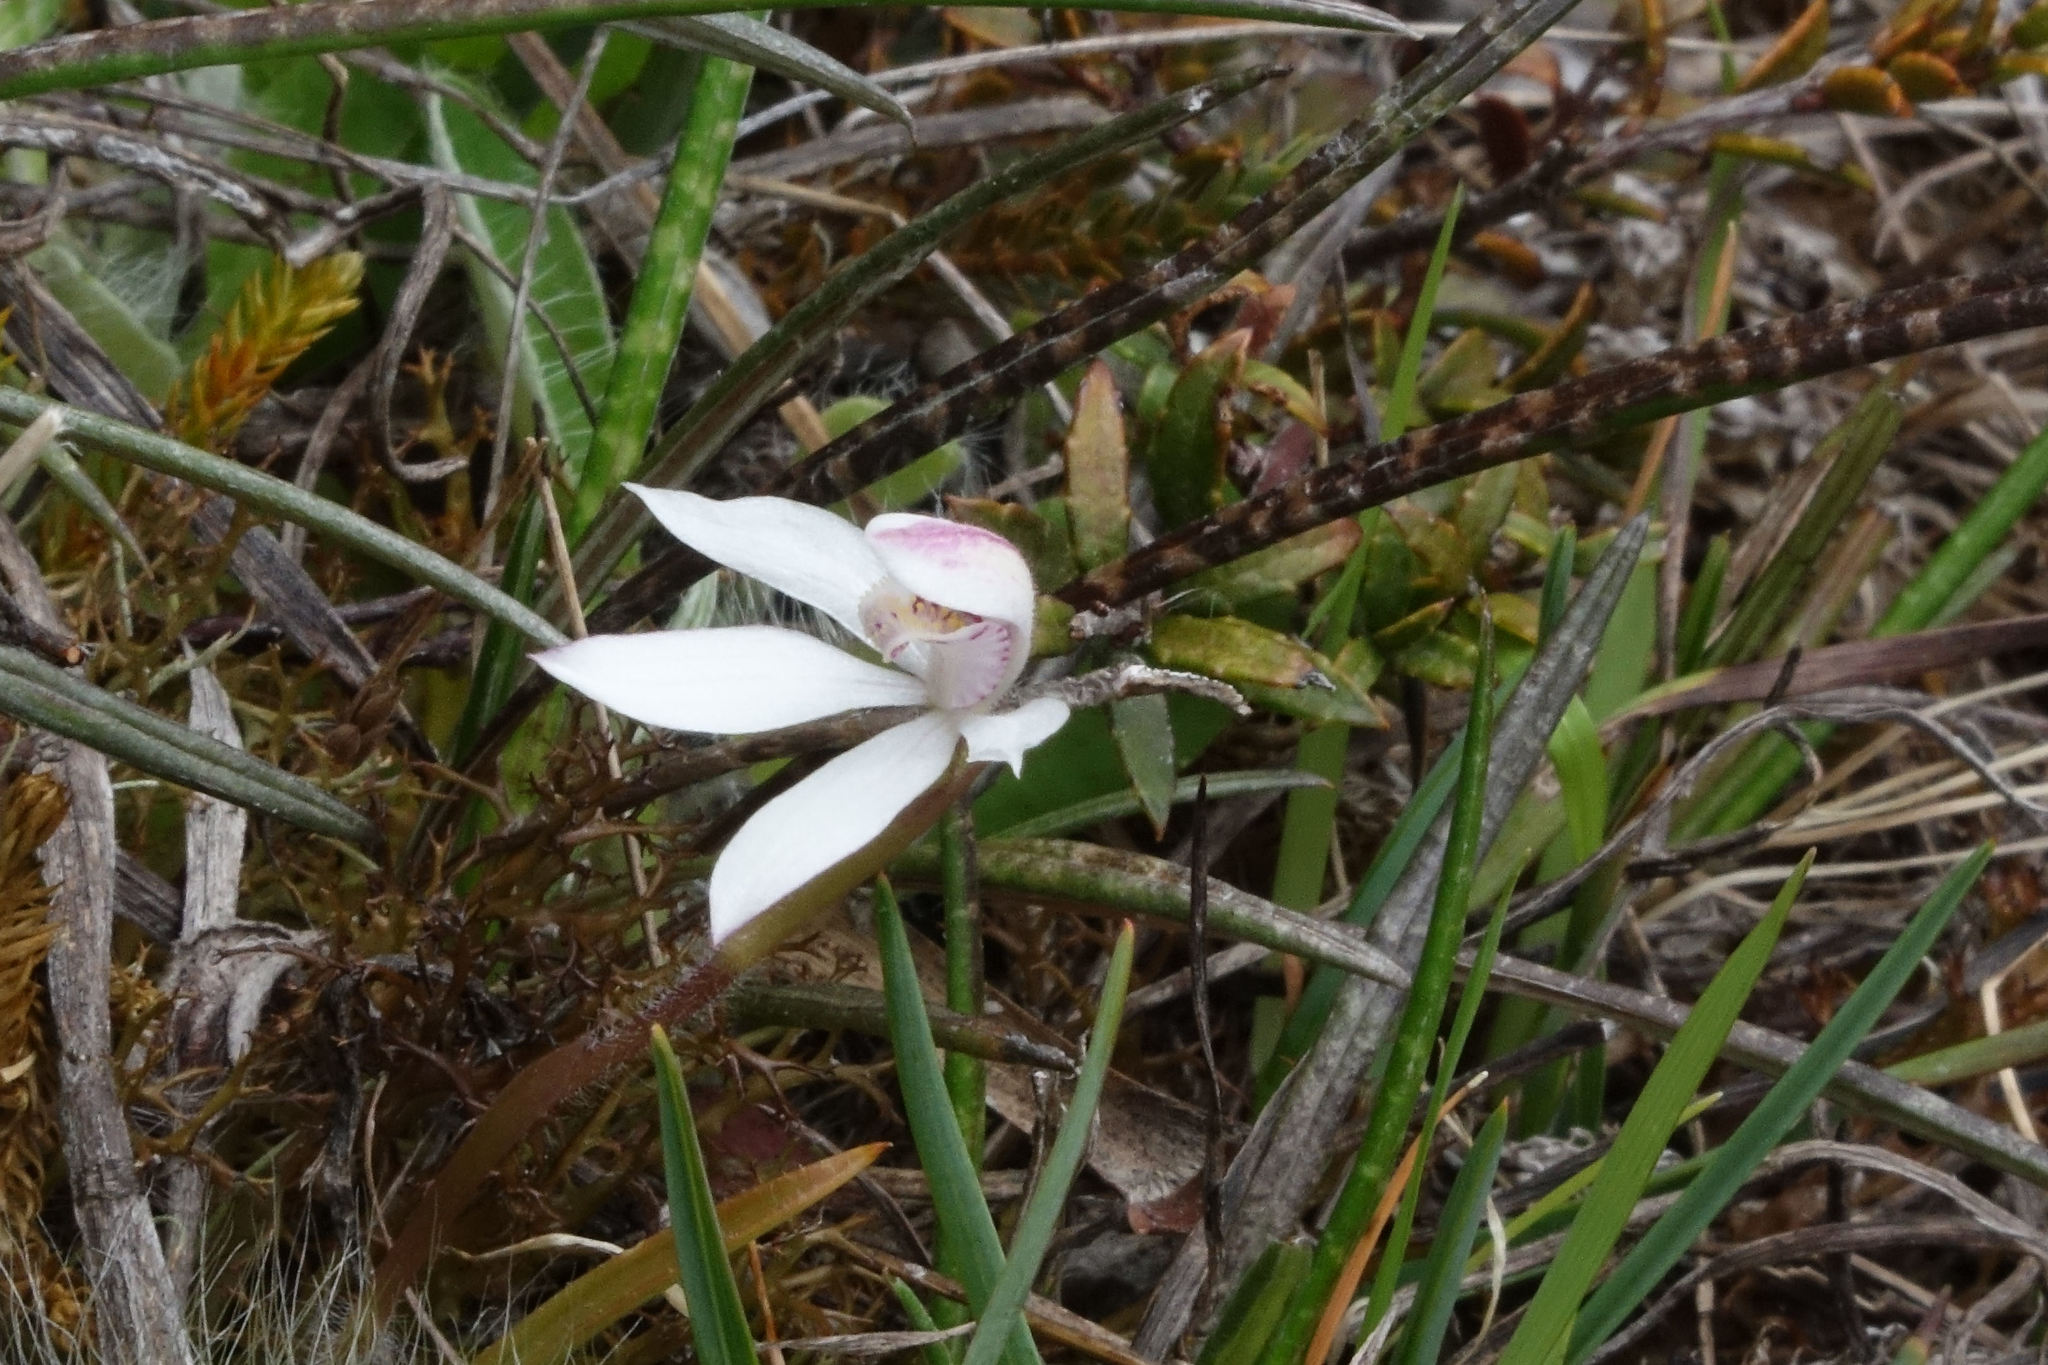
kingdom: Plantae
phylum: Tracheophyta
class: Liliopsida
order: Asparagales
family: Orchidaceae
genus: Caladenia
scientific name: Caladenia lyallii
